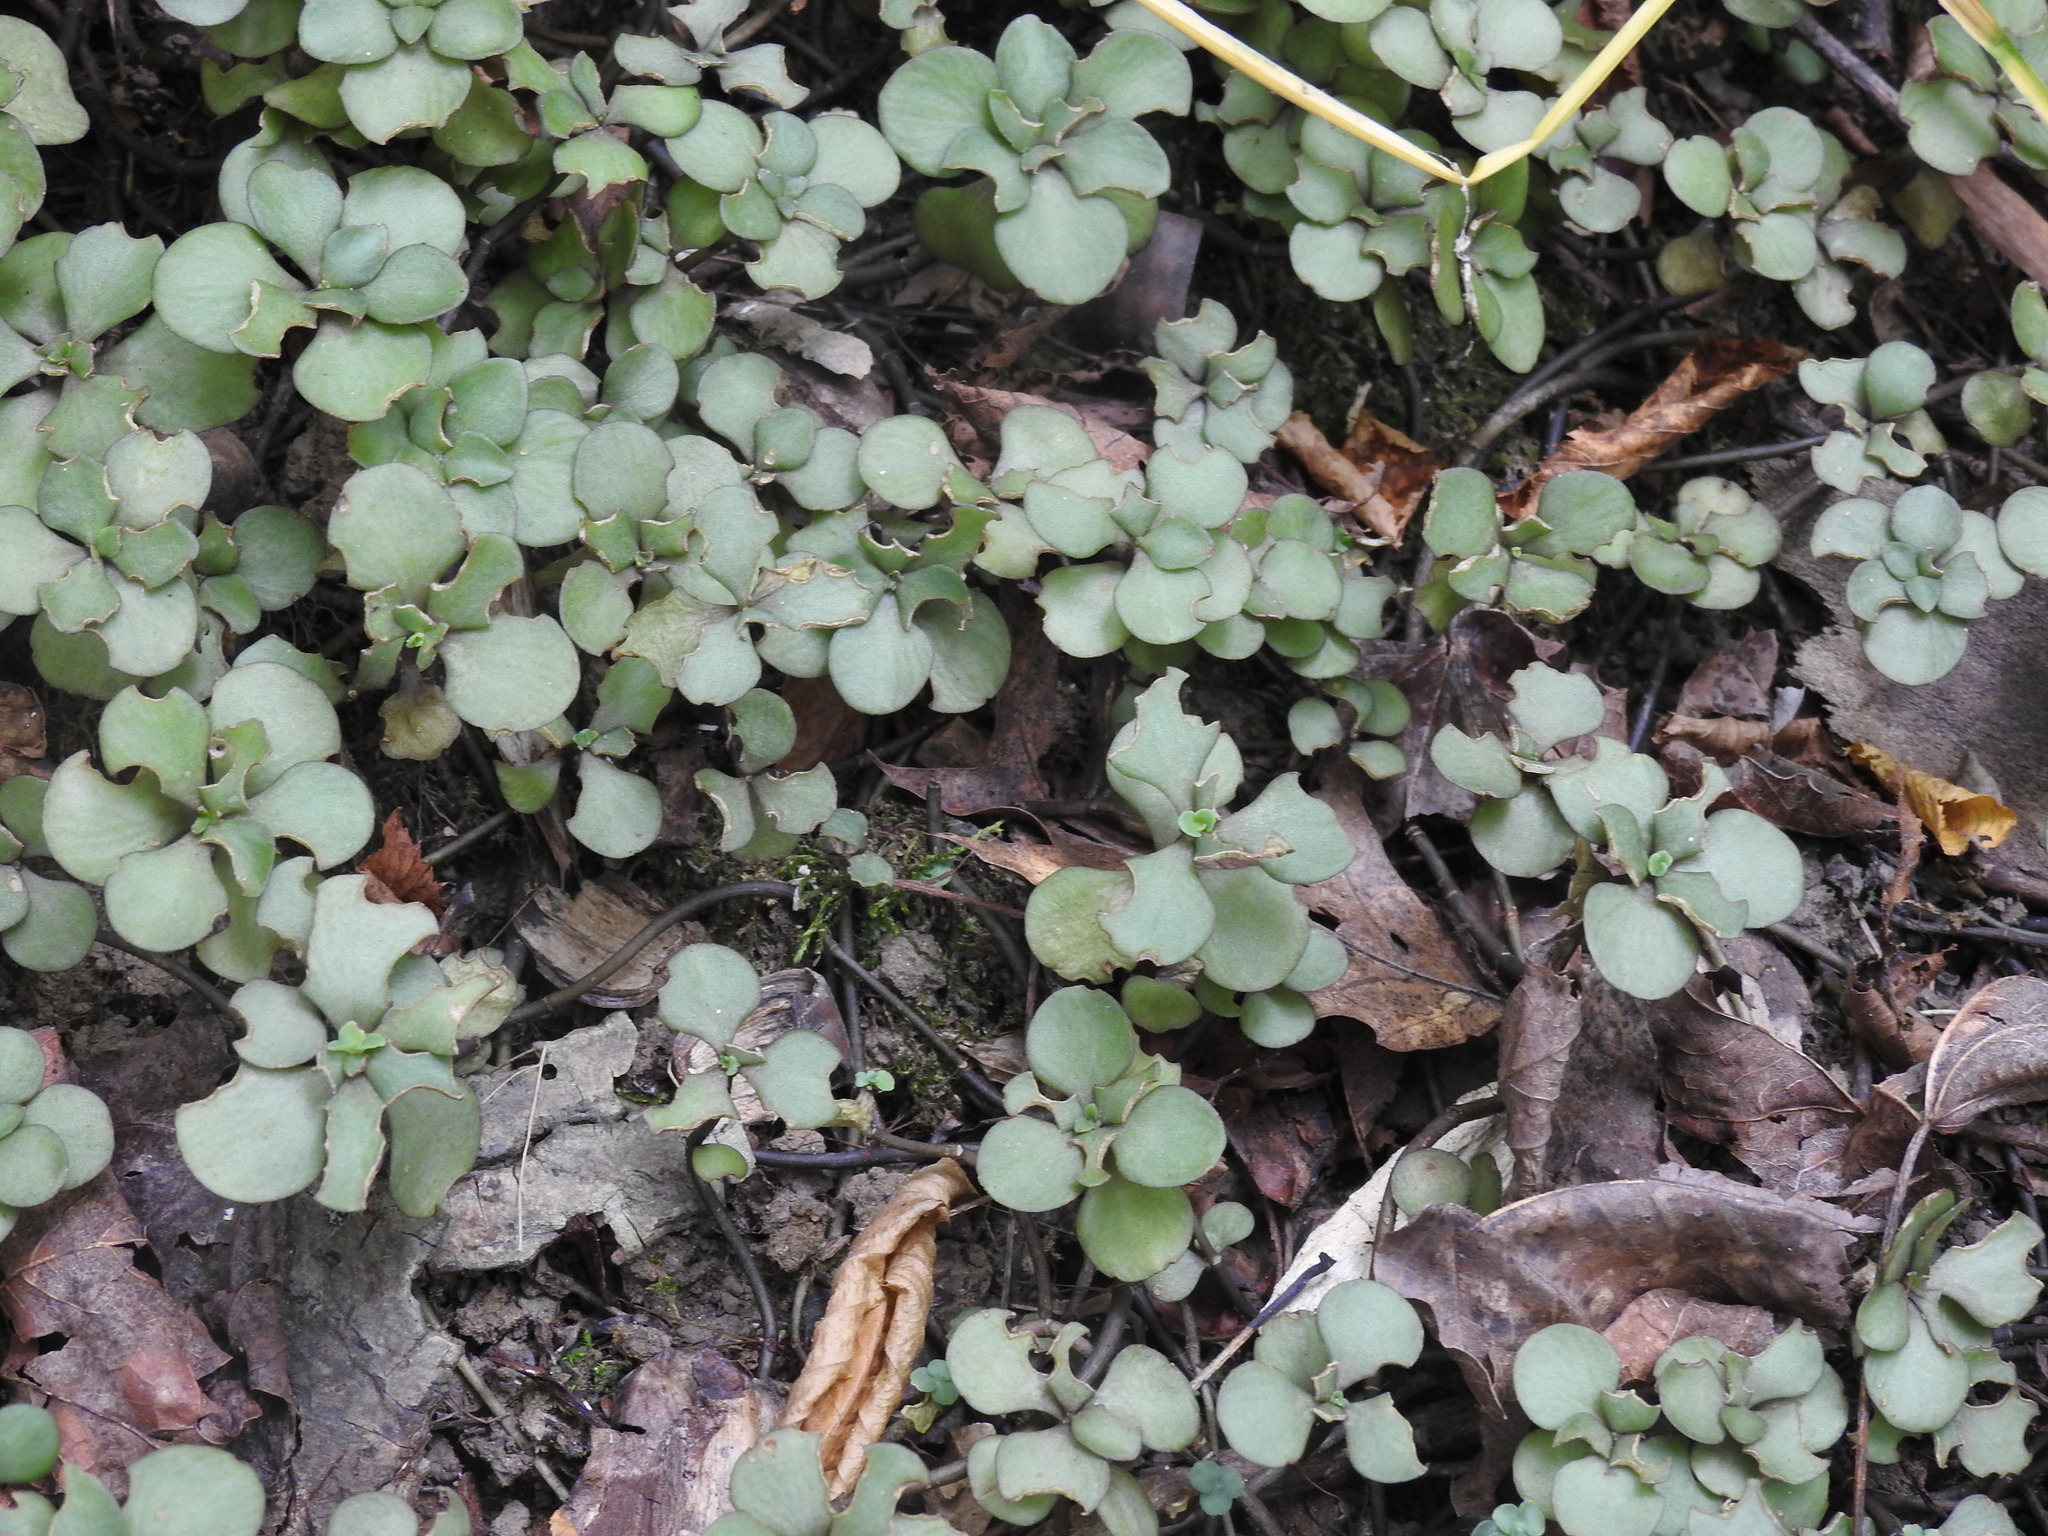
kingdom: Plantae
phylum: Tracheophyta
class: Magnoliopsida
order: Saxifragales
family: Crassulaceae
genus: Sedum
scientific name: Sedum ternatum
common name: Wild stonecrop
